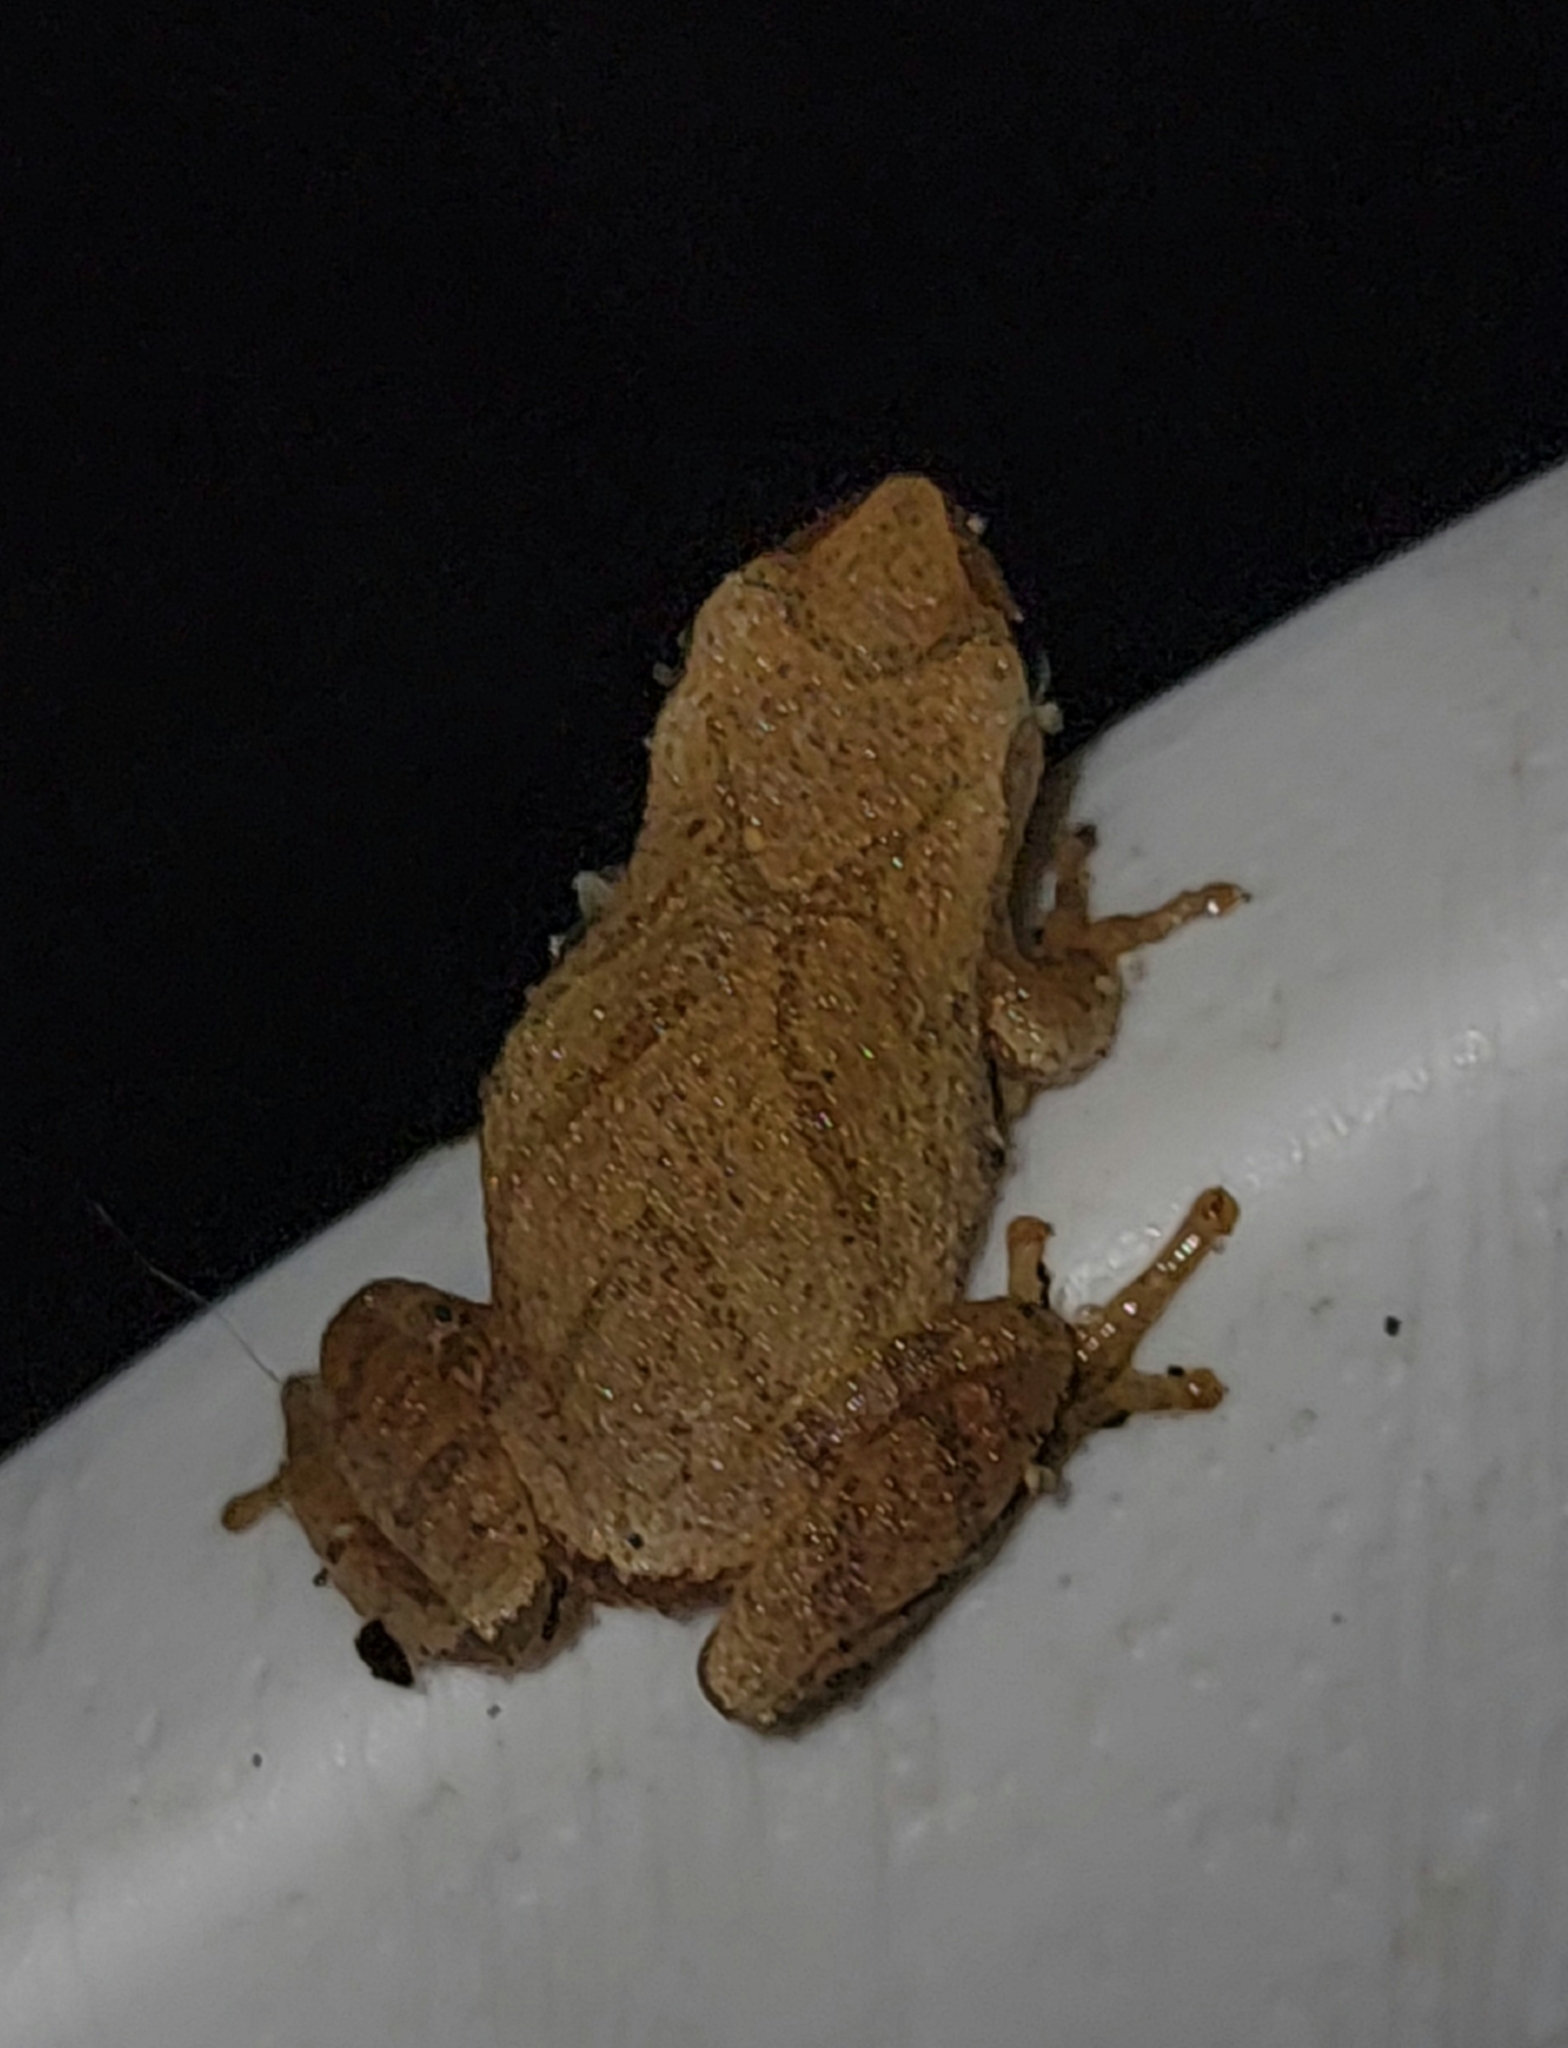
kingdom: Animalia
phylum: Chordata
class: Amphibia
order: Anura
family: Hylidae
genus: Pseudacris
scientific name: Pseudacris crucifer
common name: Spring peeper
